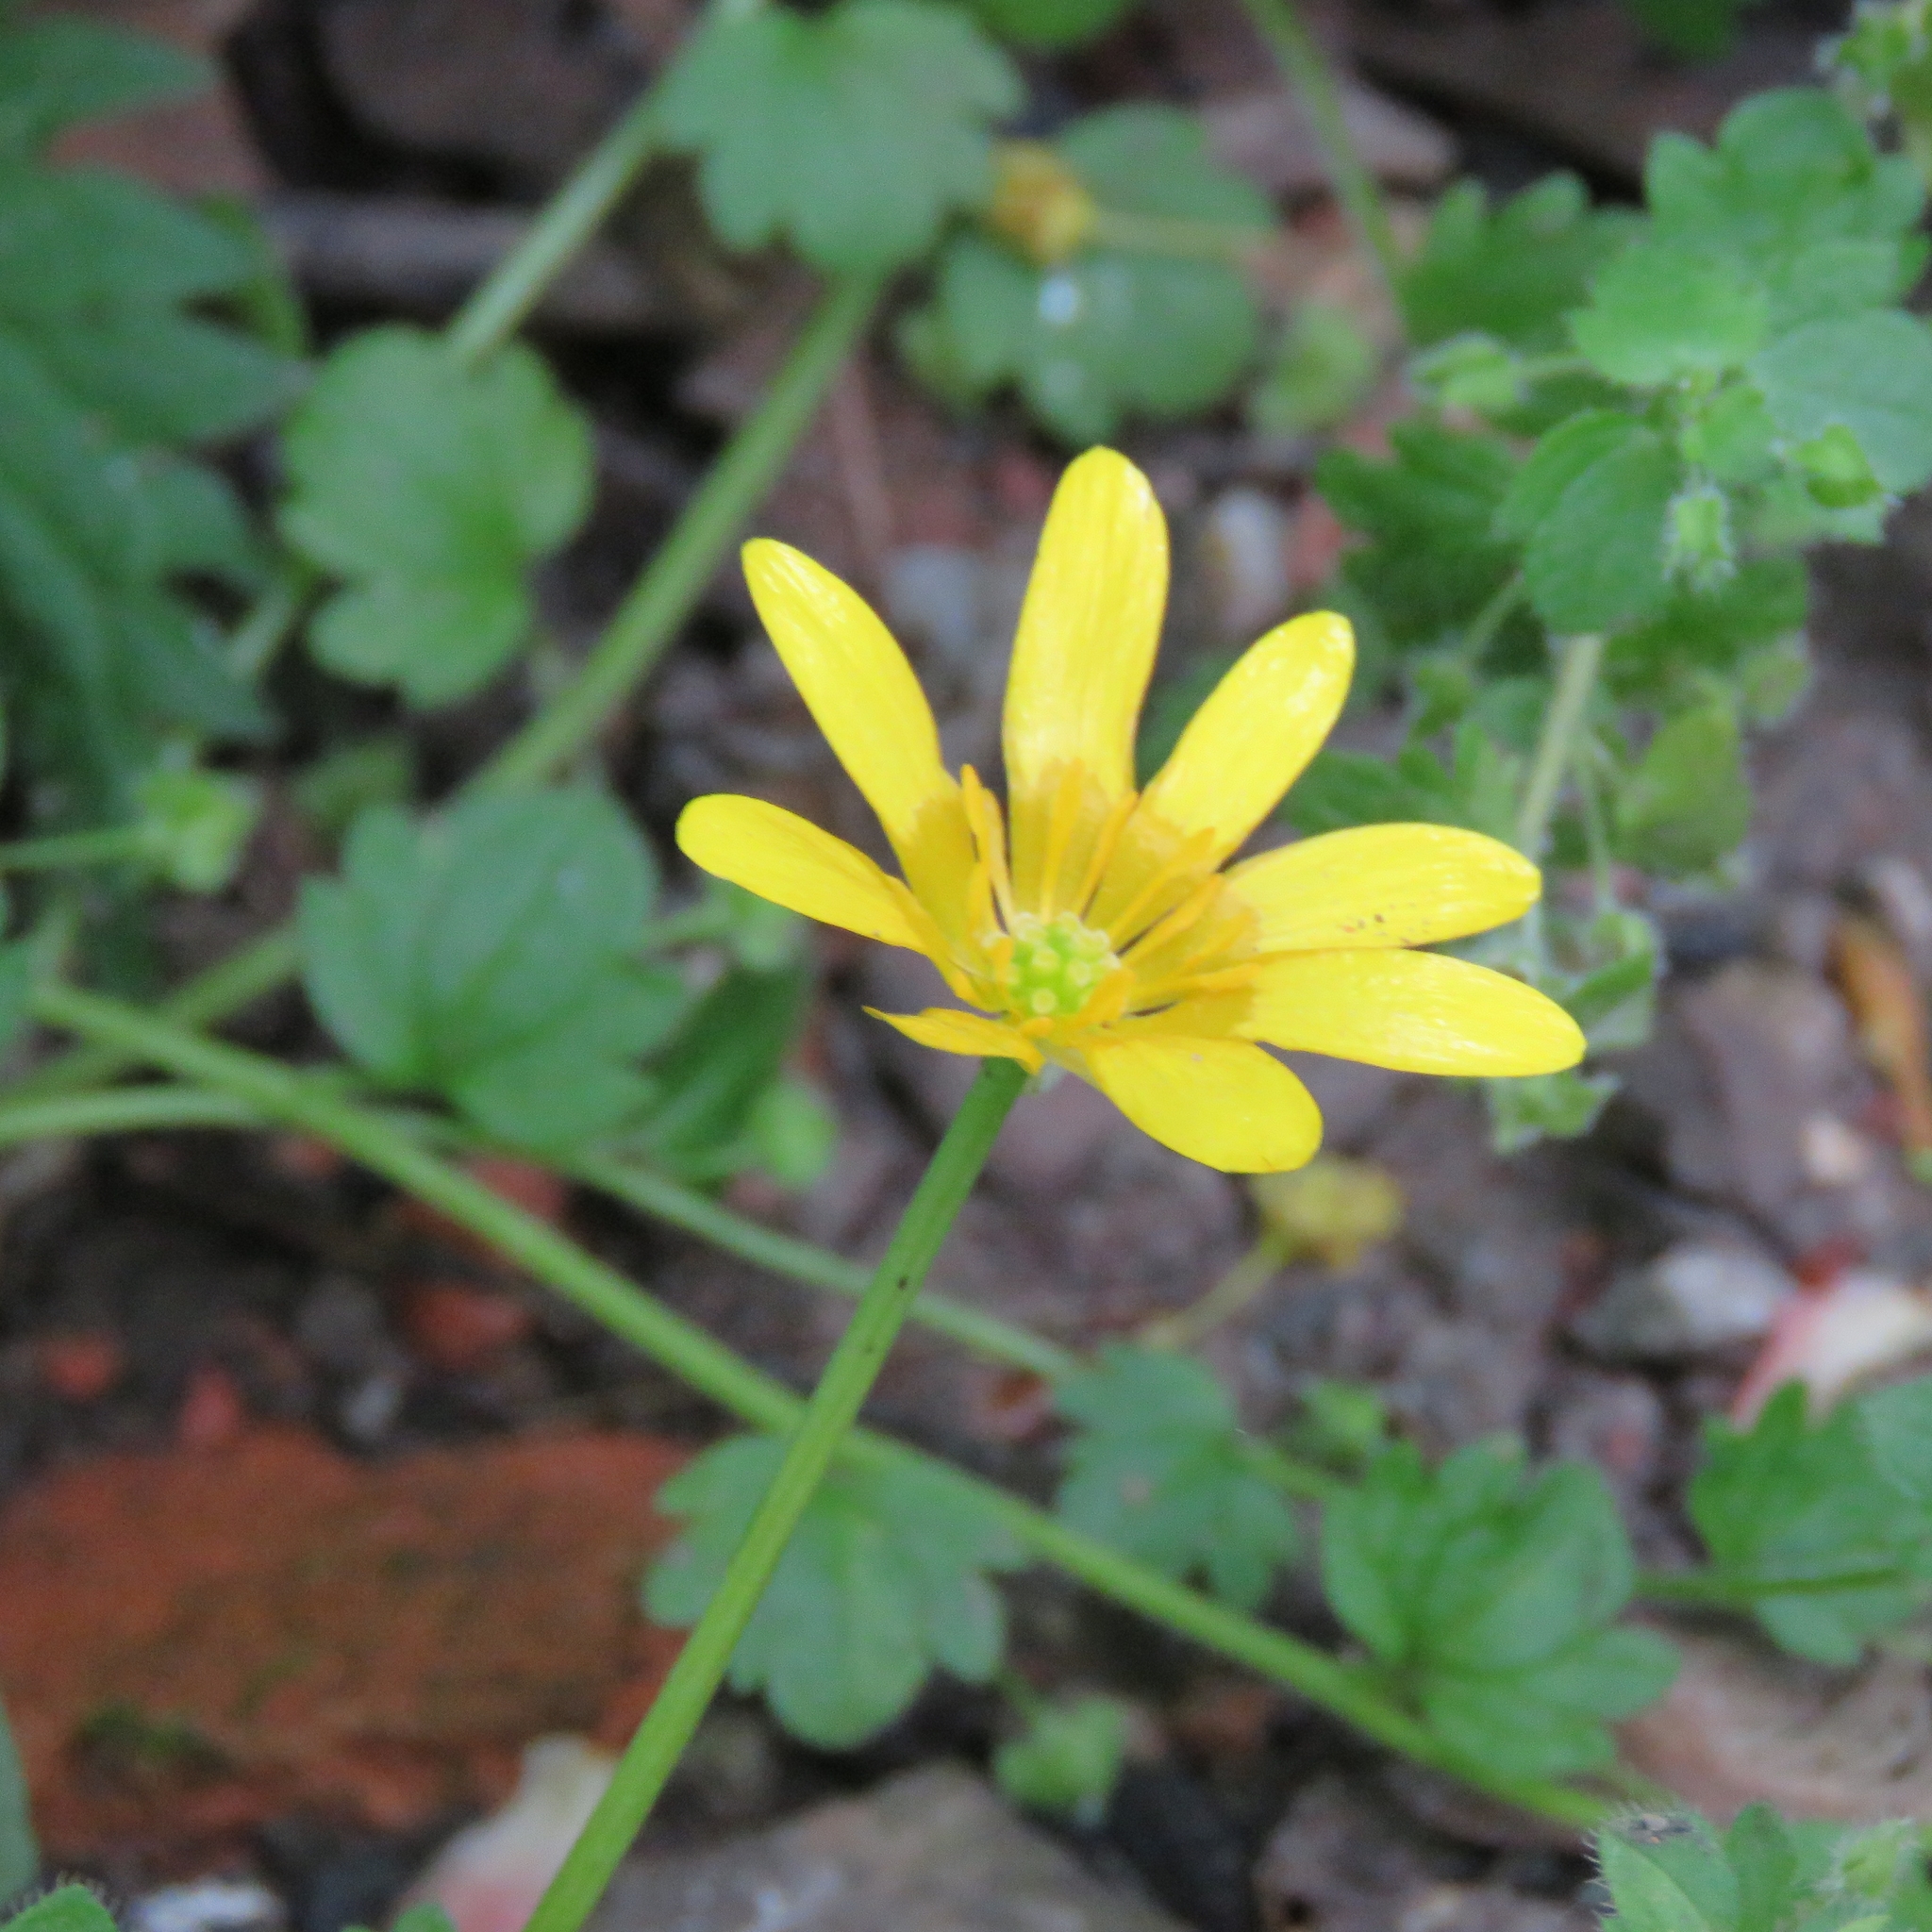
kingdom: Plantae
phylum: Tracheophyta
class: Magnoliopsida
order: Ranunculales
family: Ranunculaceae
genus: Ficaria
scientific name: Ficaria verna
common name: Lesser celandine
